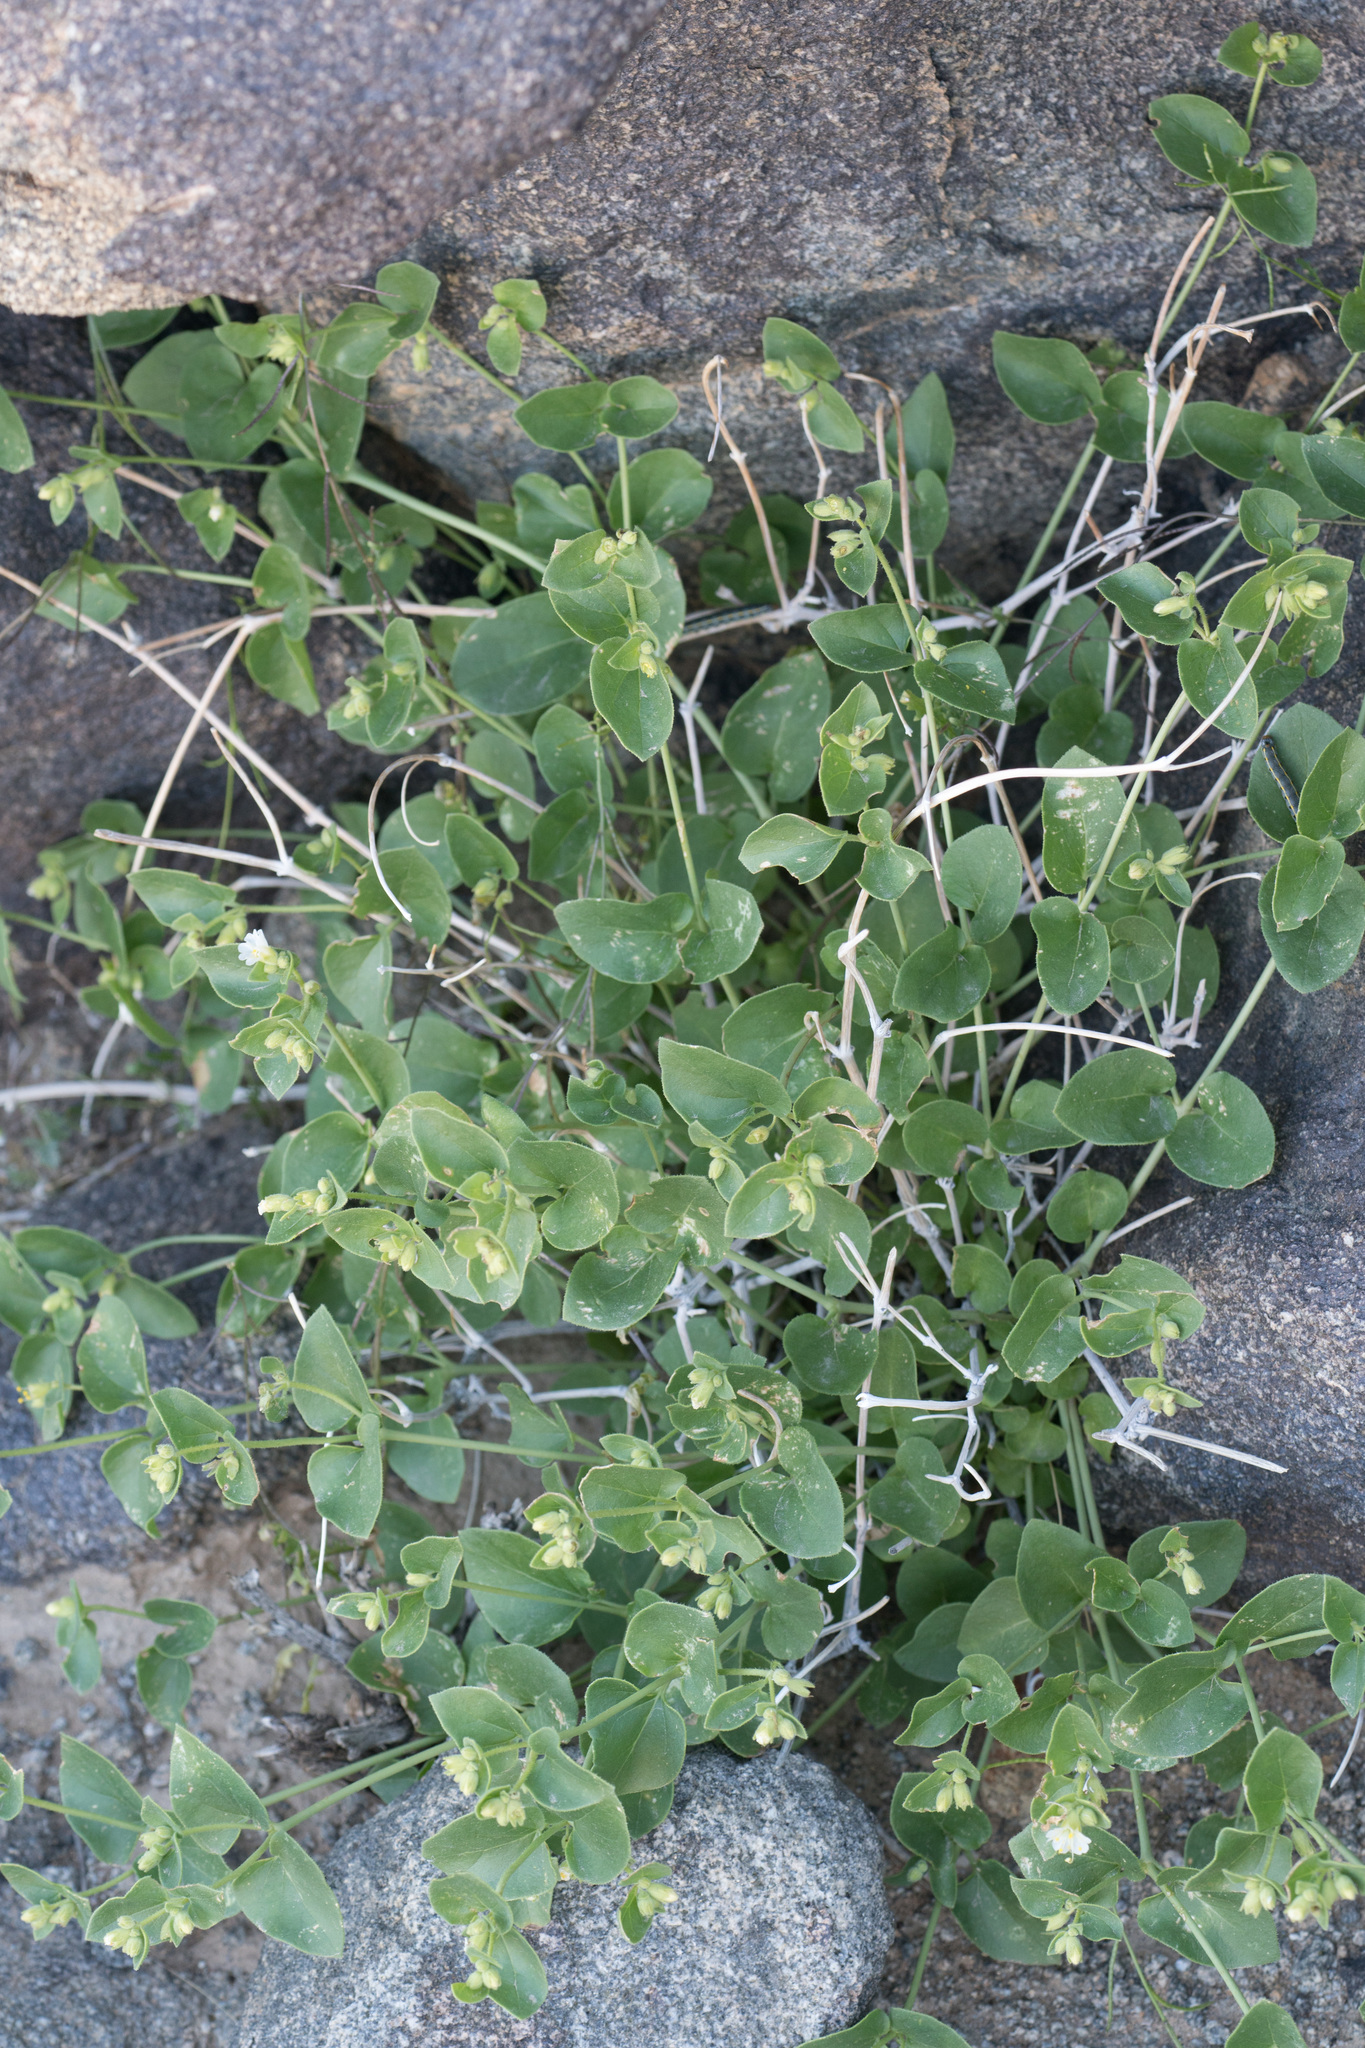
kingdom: Plantae
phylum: Tracheophyta
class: Magnoliopsida
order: Caryophyllales
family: Nyctaginaceae
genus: Mirabilis
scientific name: Mirabilis laevis
